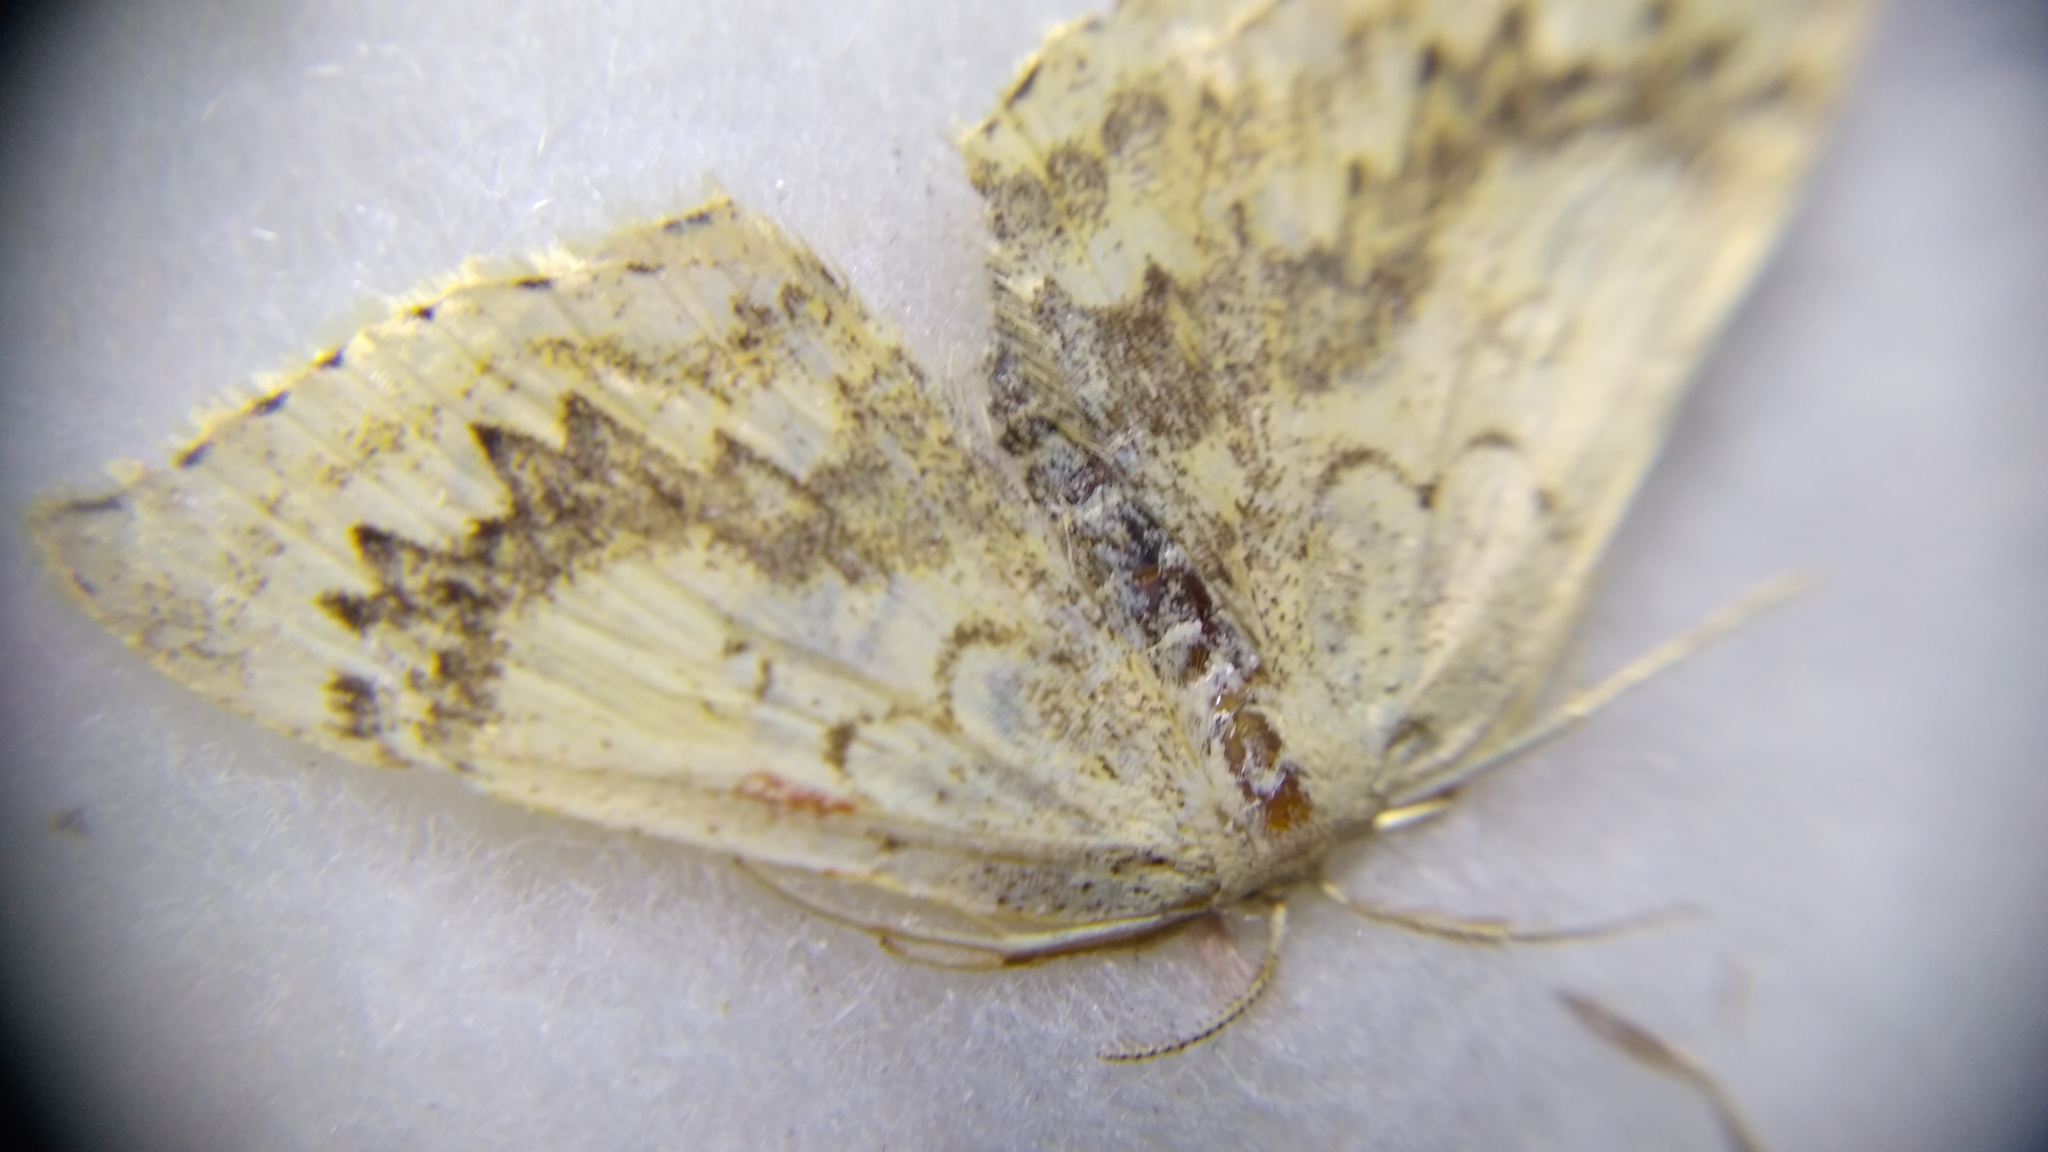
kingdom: Animalia
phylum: Arthropoda
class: Insecta
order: Lepidoptera
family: Geometridae
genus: Cyclophora
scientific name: Cyclophora annularia
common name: Mocha
